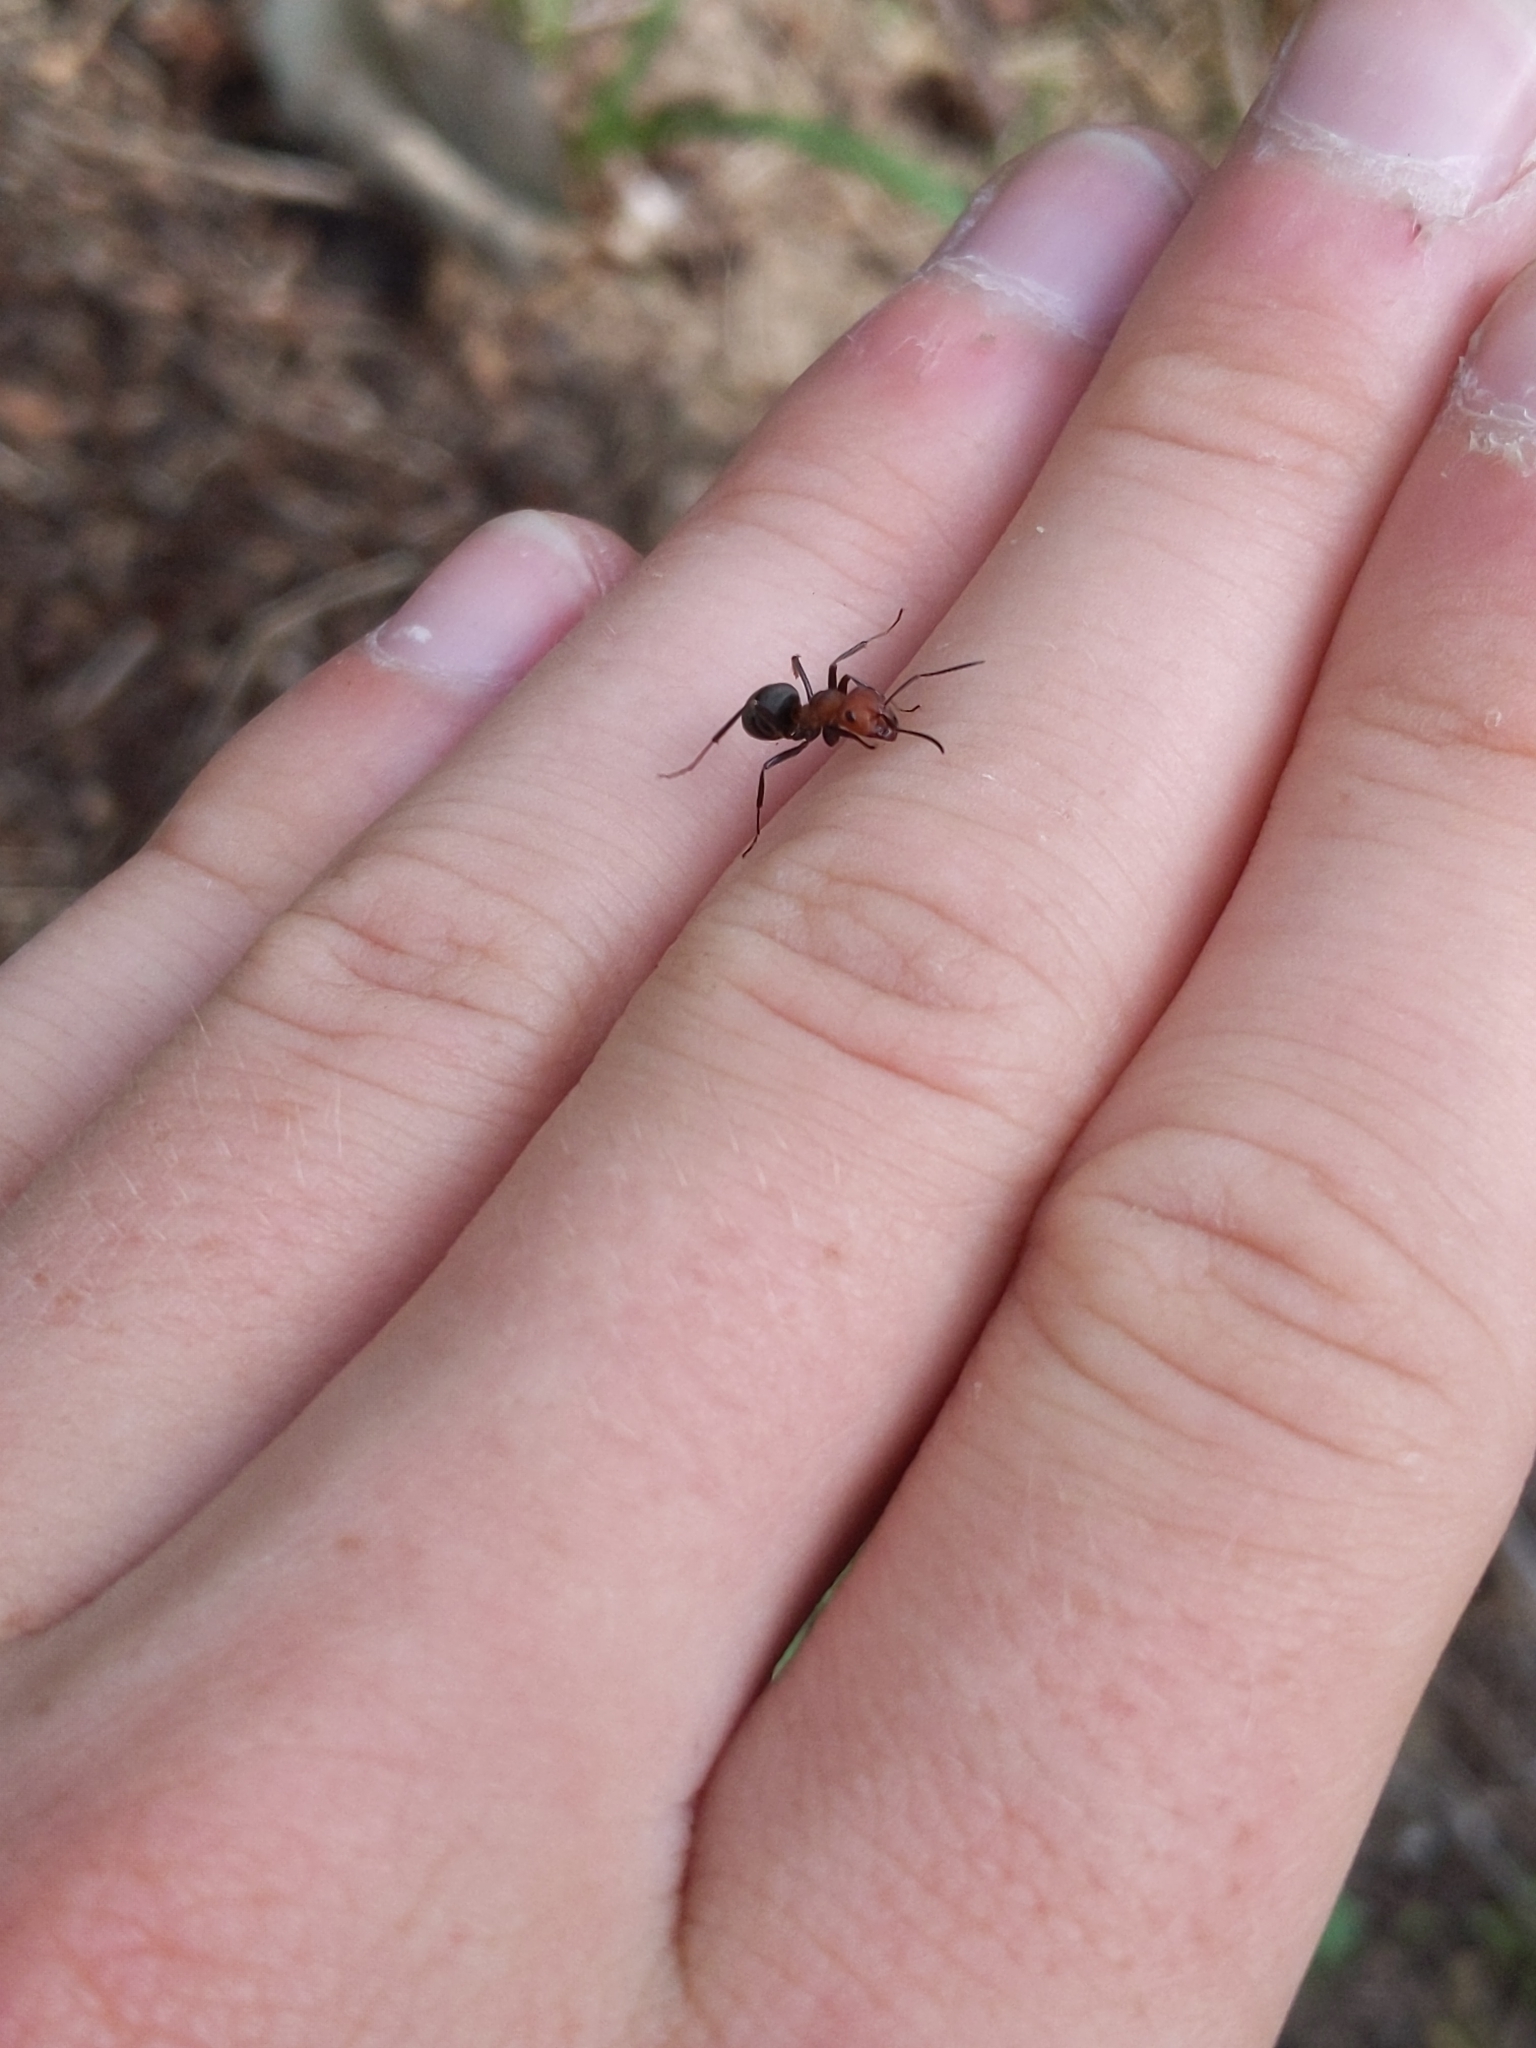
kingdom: Animalia
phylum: Arthropoda
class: Insecta
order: Hymenoptera
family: Formicidae
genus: Formica
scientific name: Formica obscuripes
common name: Western thatching ant
